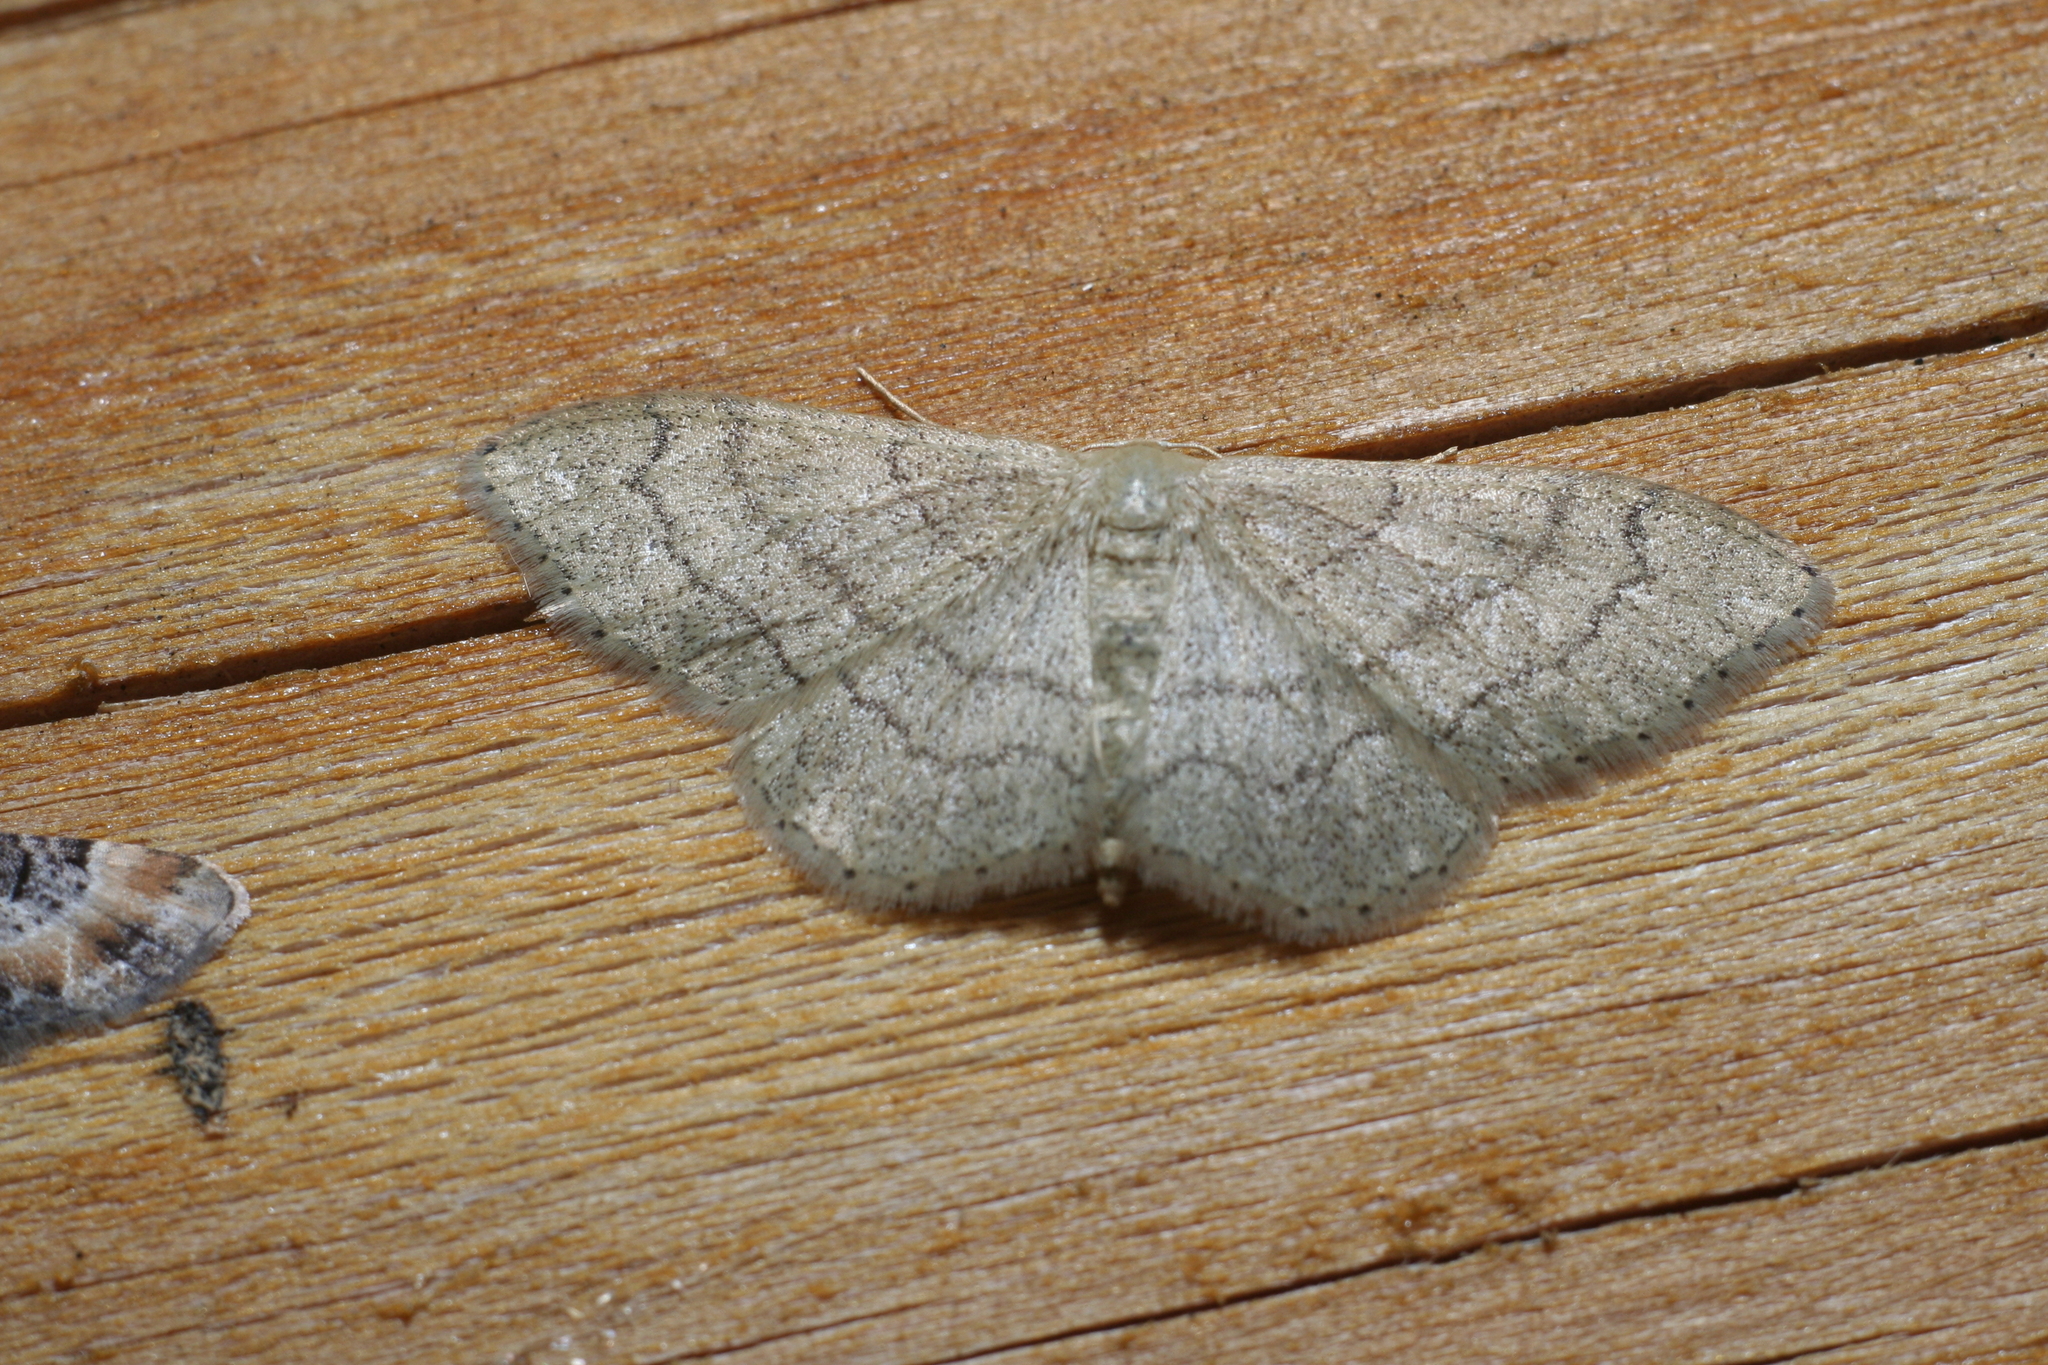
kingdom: Animalia
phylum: Arthropoda
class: Insecta
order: Lepidoptera
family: Geometridae
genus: Idaea
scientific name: Idaea aversata
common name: Riband wave
